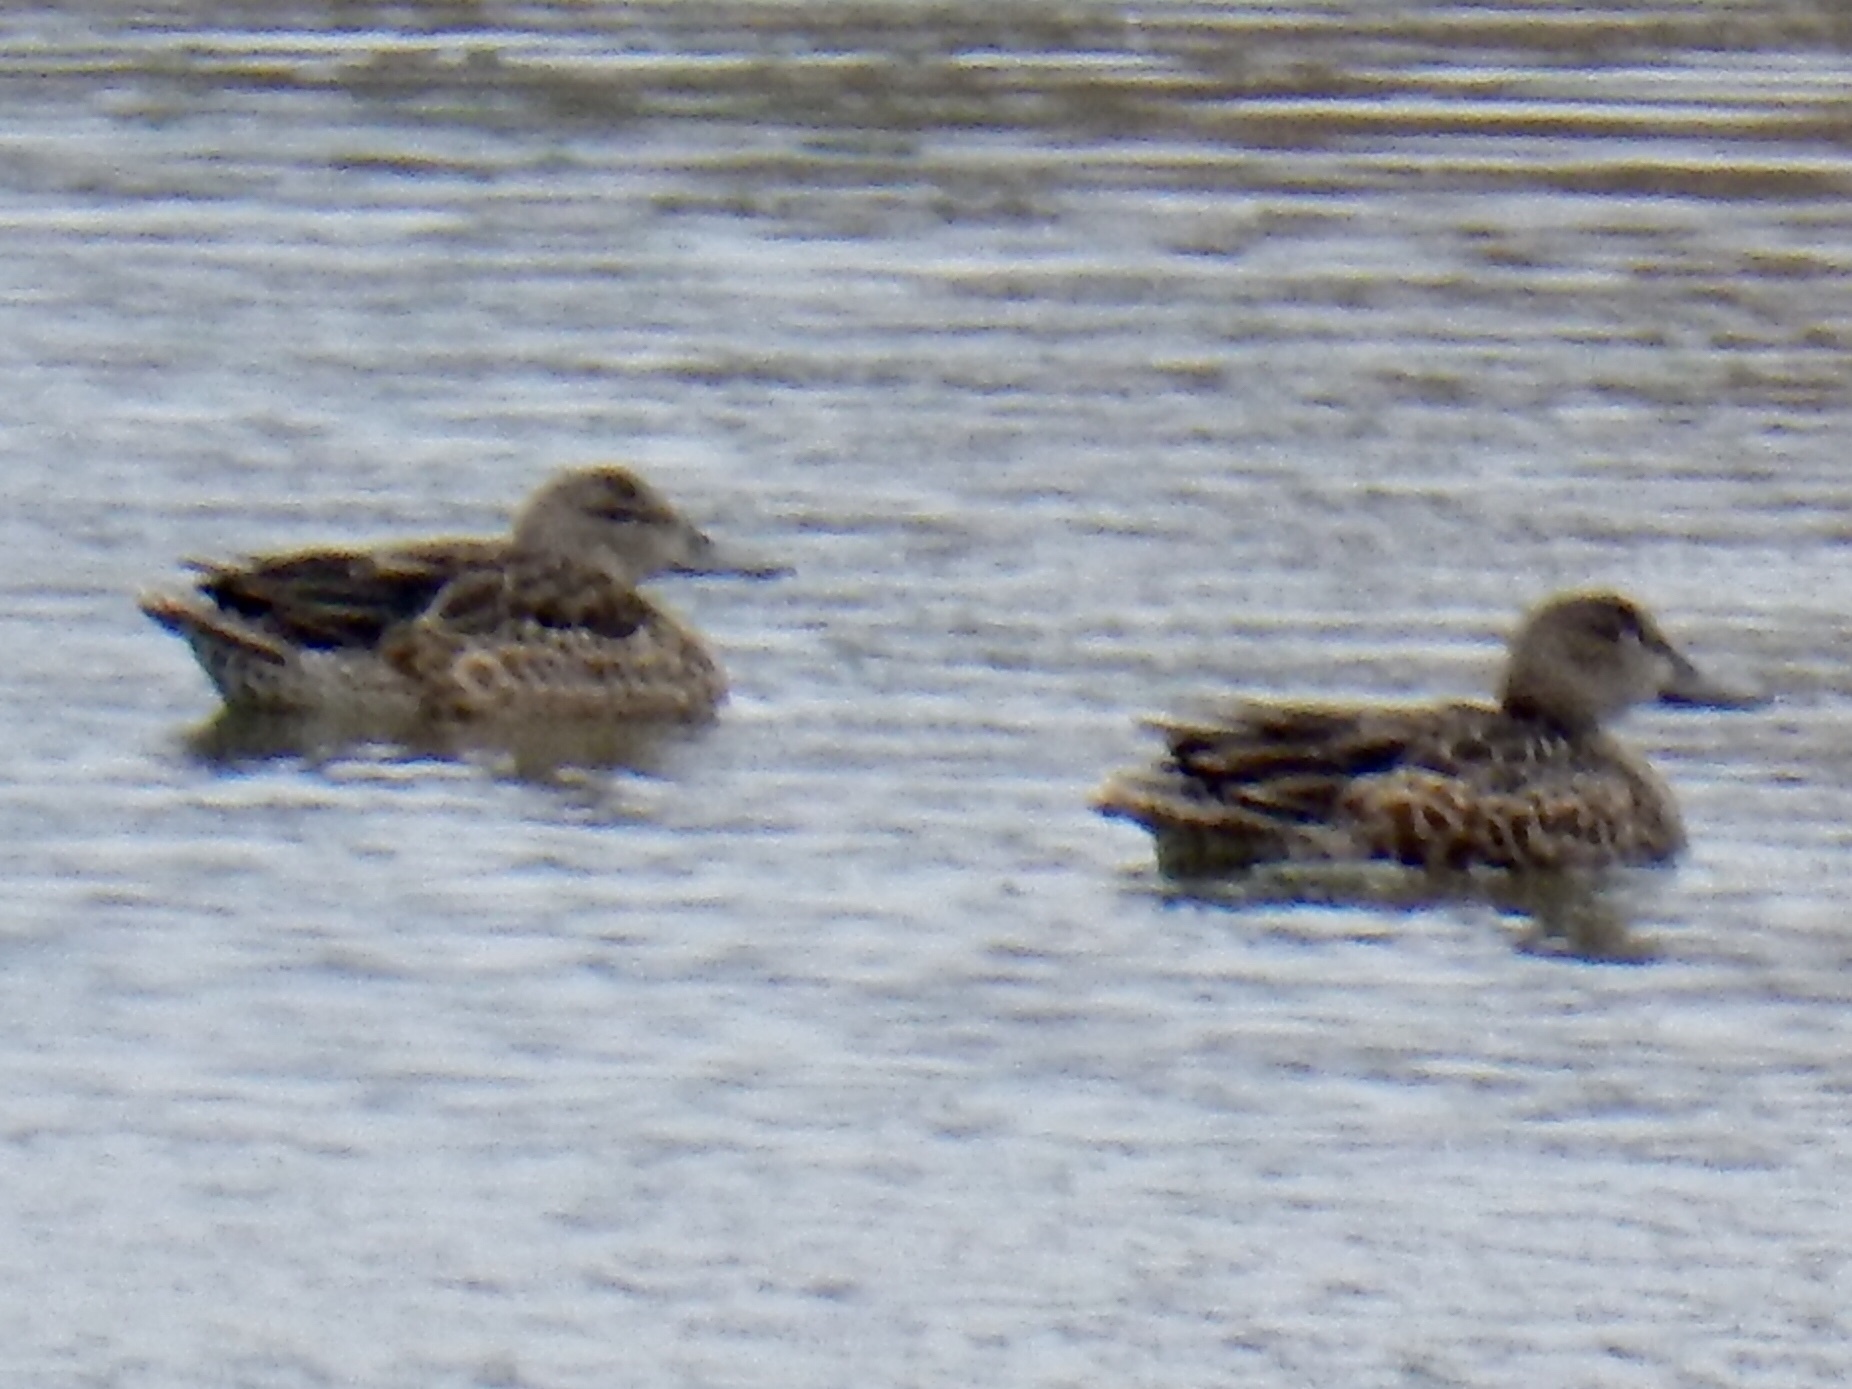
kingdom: Animalia
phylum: Chordata
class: Aves
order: Anseriformes
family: Anatidae
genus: Spatula
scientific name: Spatula discors
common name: Blue-winged teal
